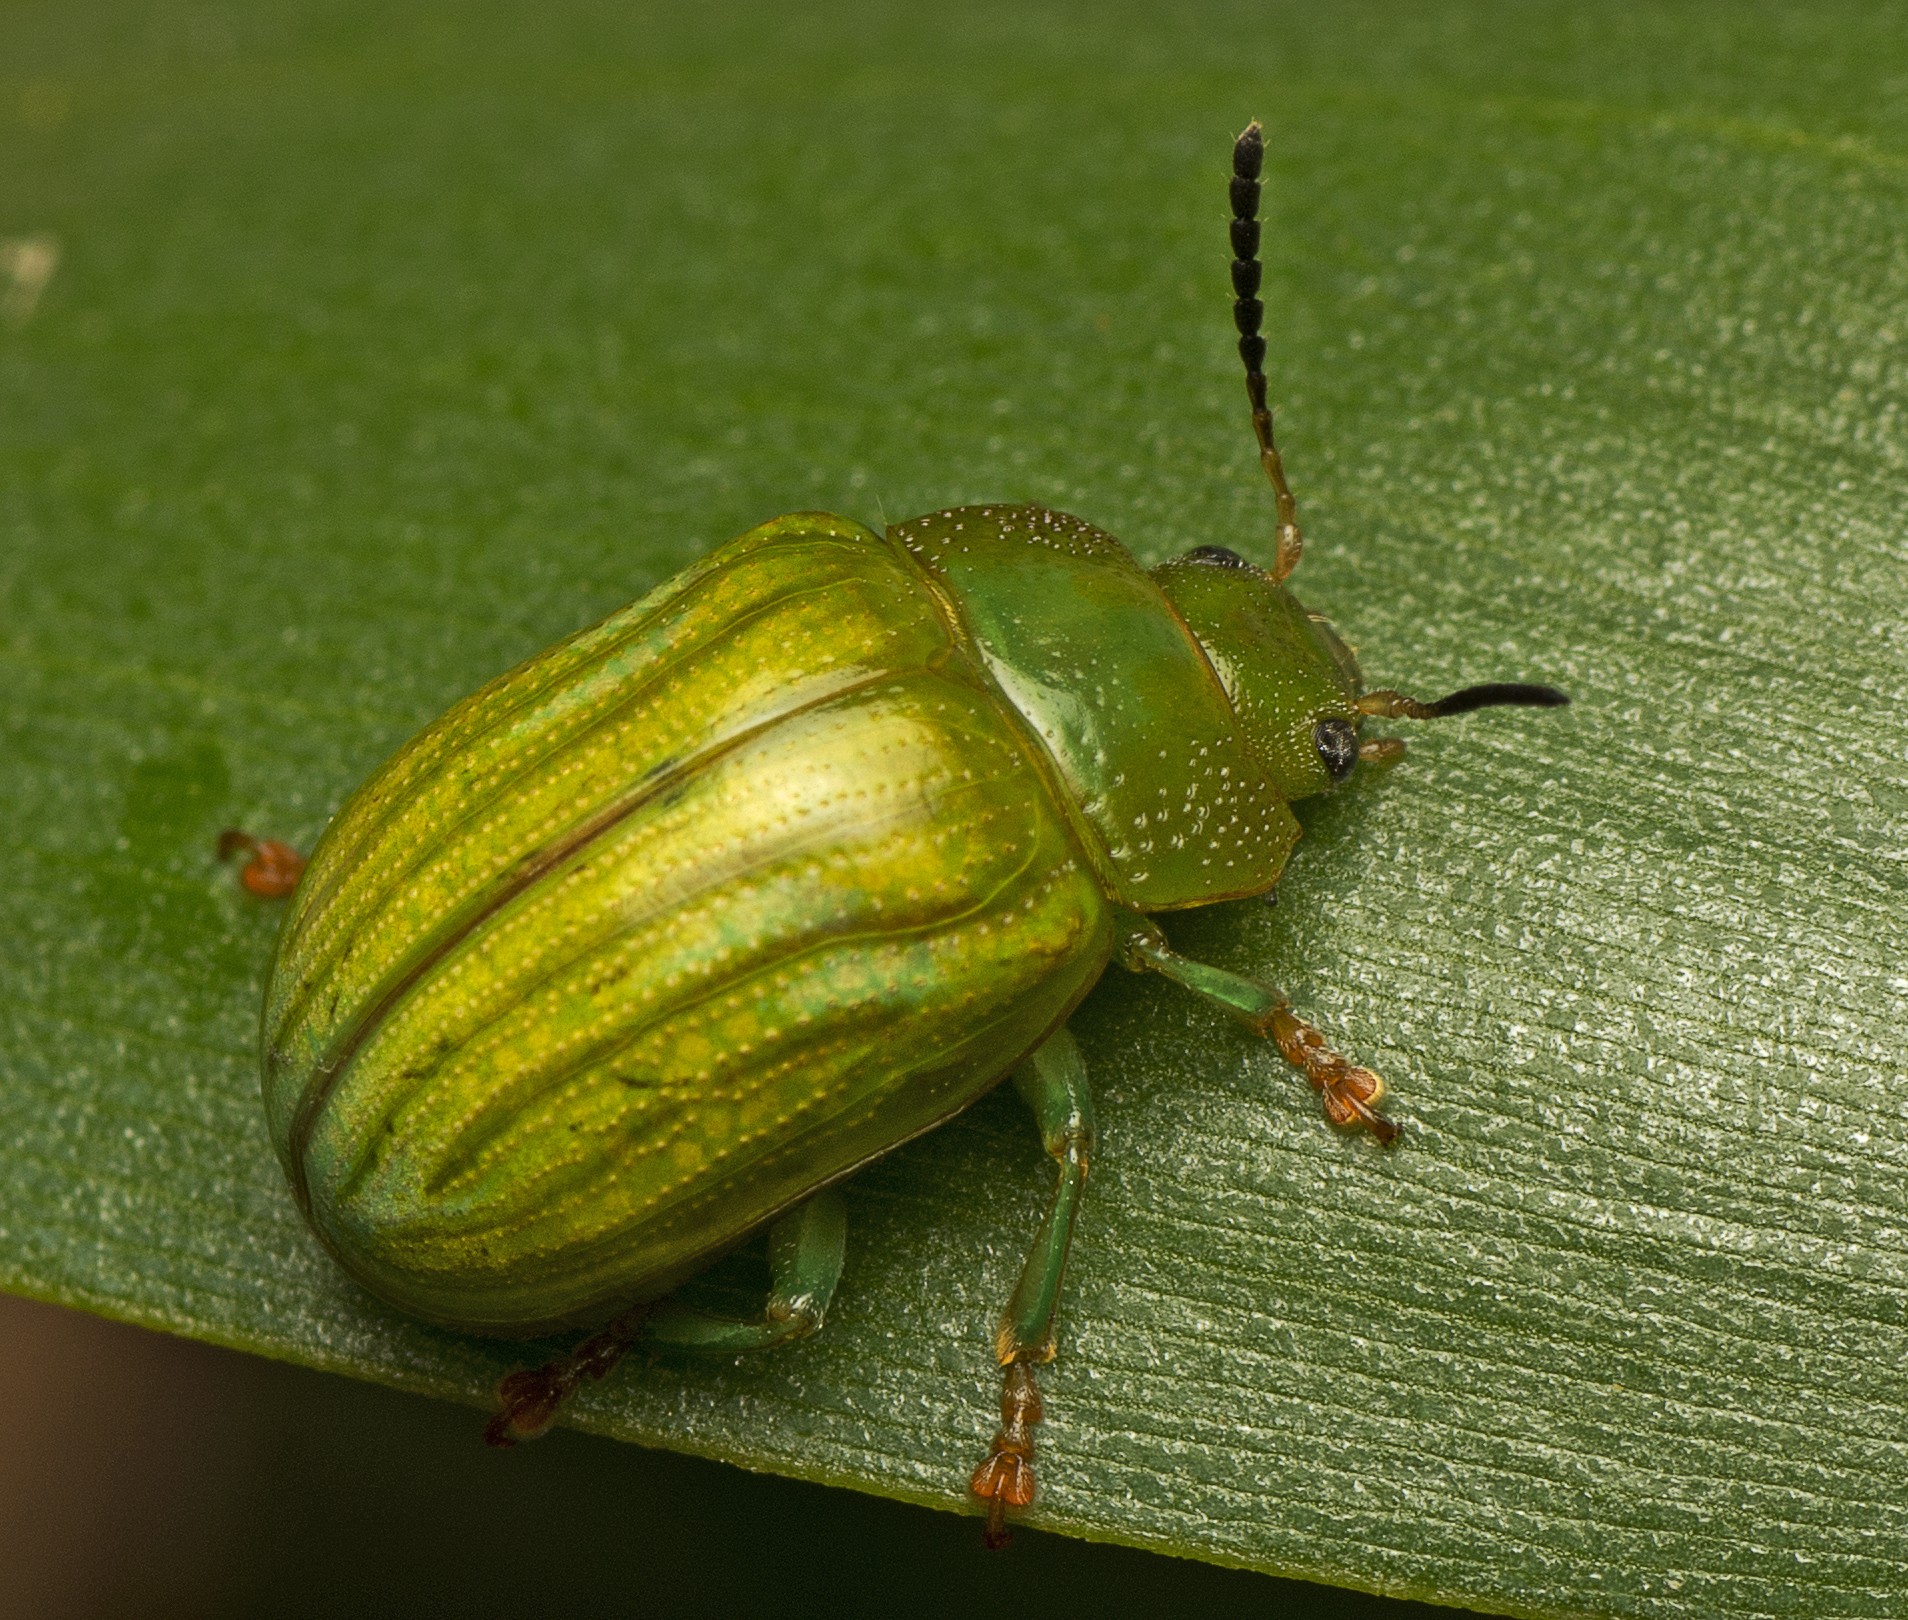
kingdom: Animalia
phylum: Arthropoda
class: Insecta
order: Coleoptera
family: Chrysomelidae
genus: Calomela
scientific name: Calomela
